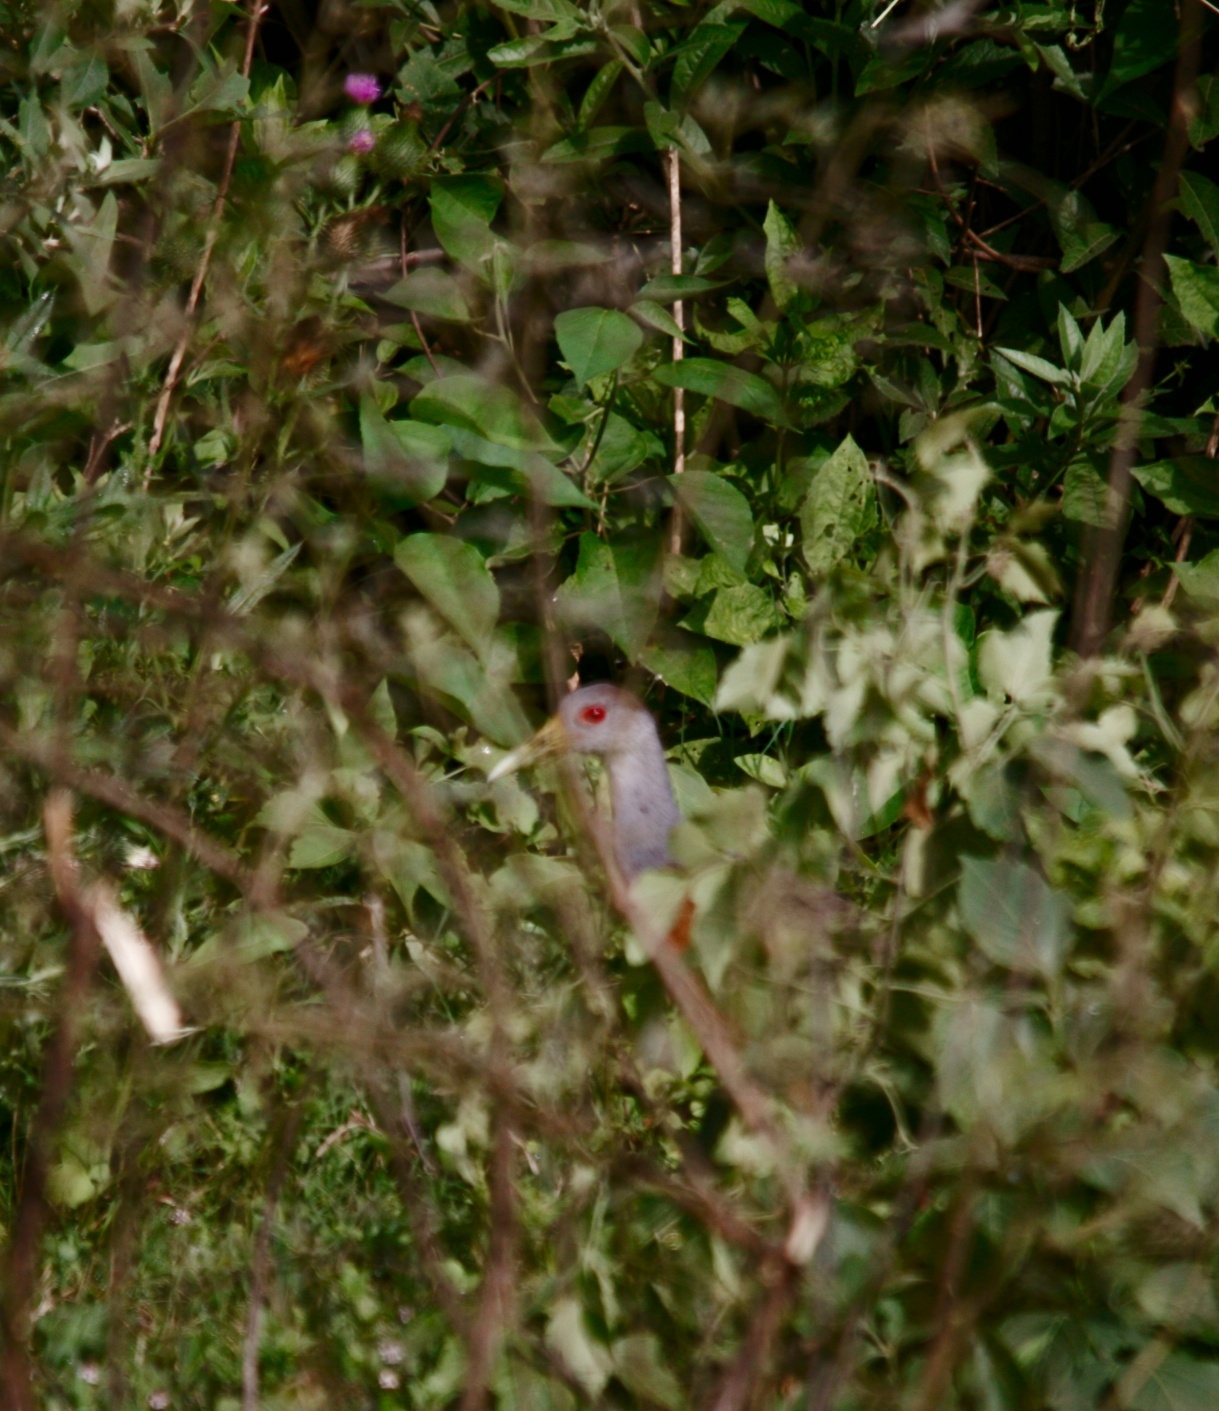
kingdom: Animalia
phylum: Chordata
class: Aves
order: Gruiformes
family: Rallidae
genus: Aramides
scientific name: Aramides cajanea
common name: Gray-necked wood-rail
